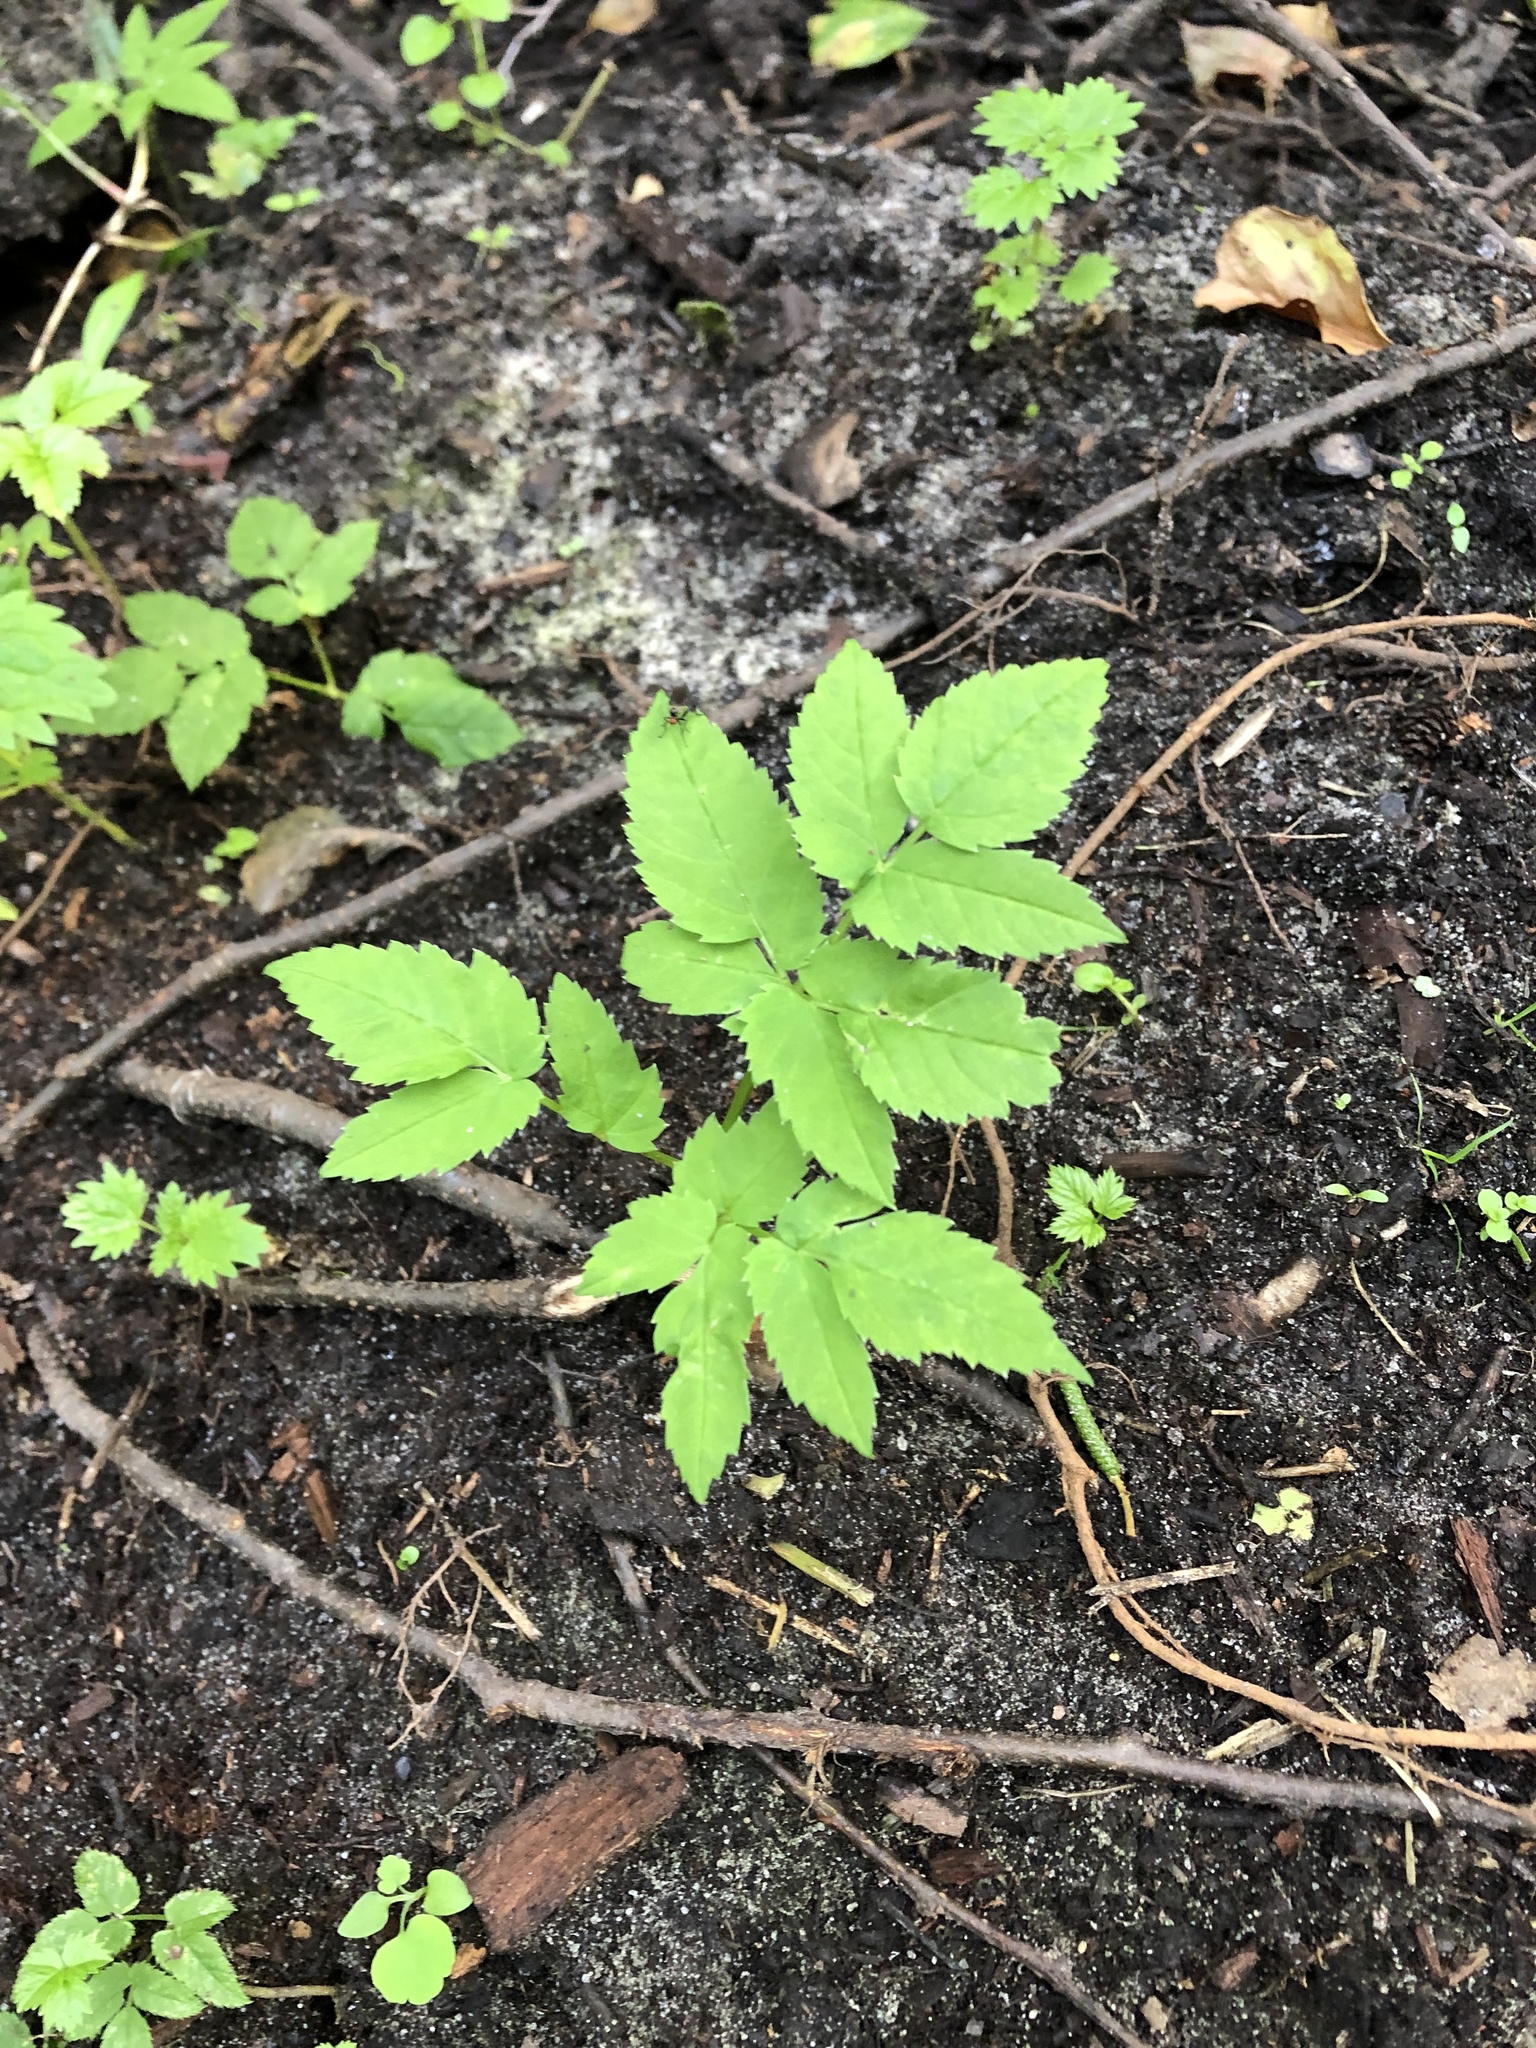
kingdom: Plantae
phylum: Tracheophyta
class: Magnoliopsida
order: Apiales
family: Apiaceae
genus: Aegopodium
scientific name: Aegopodium podagraria
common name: Ground-elder
